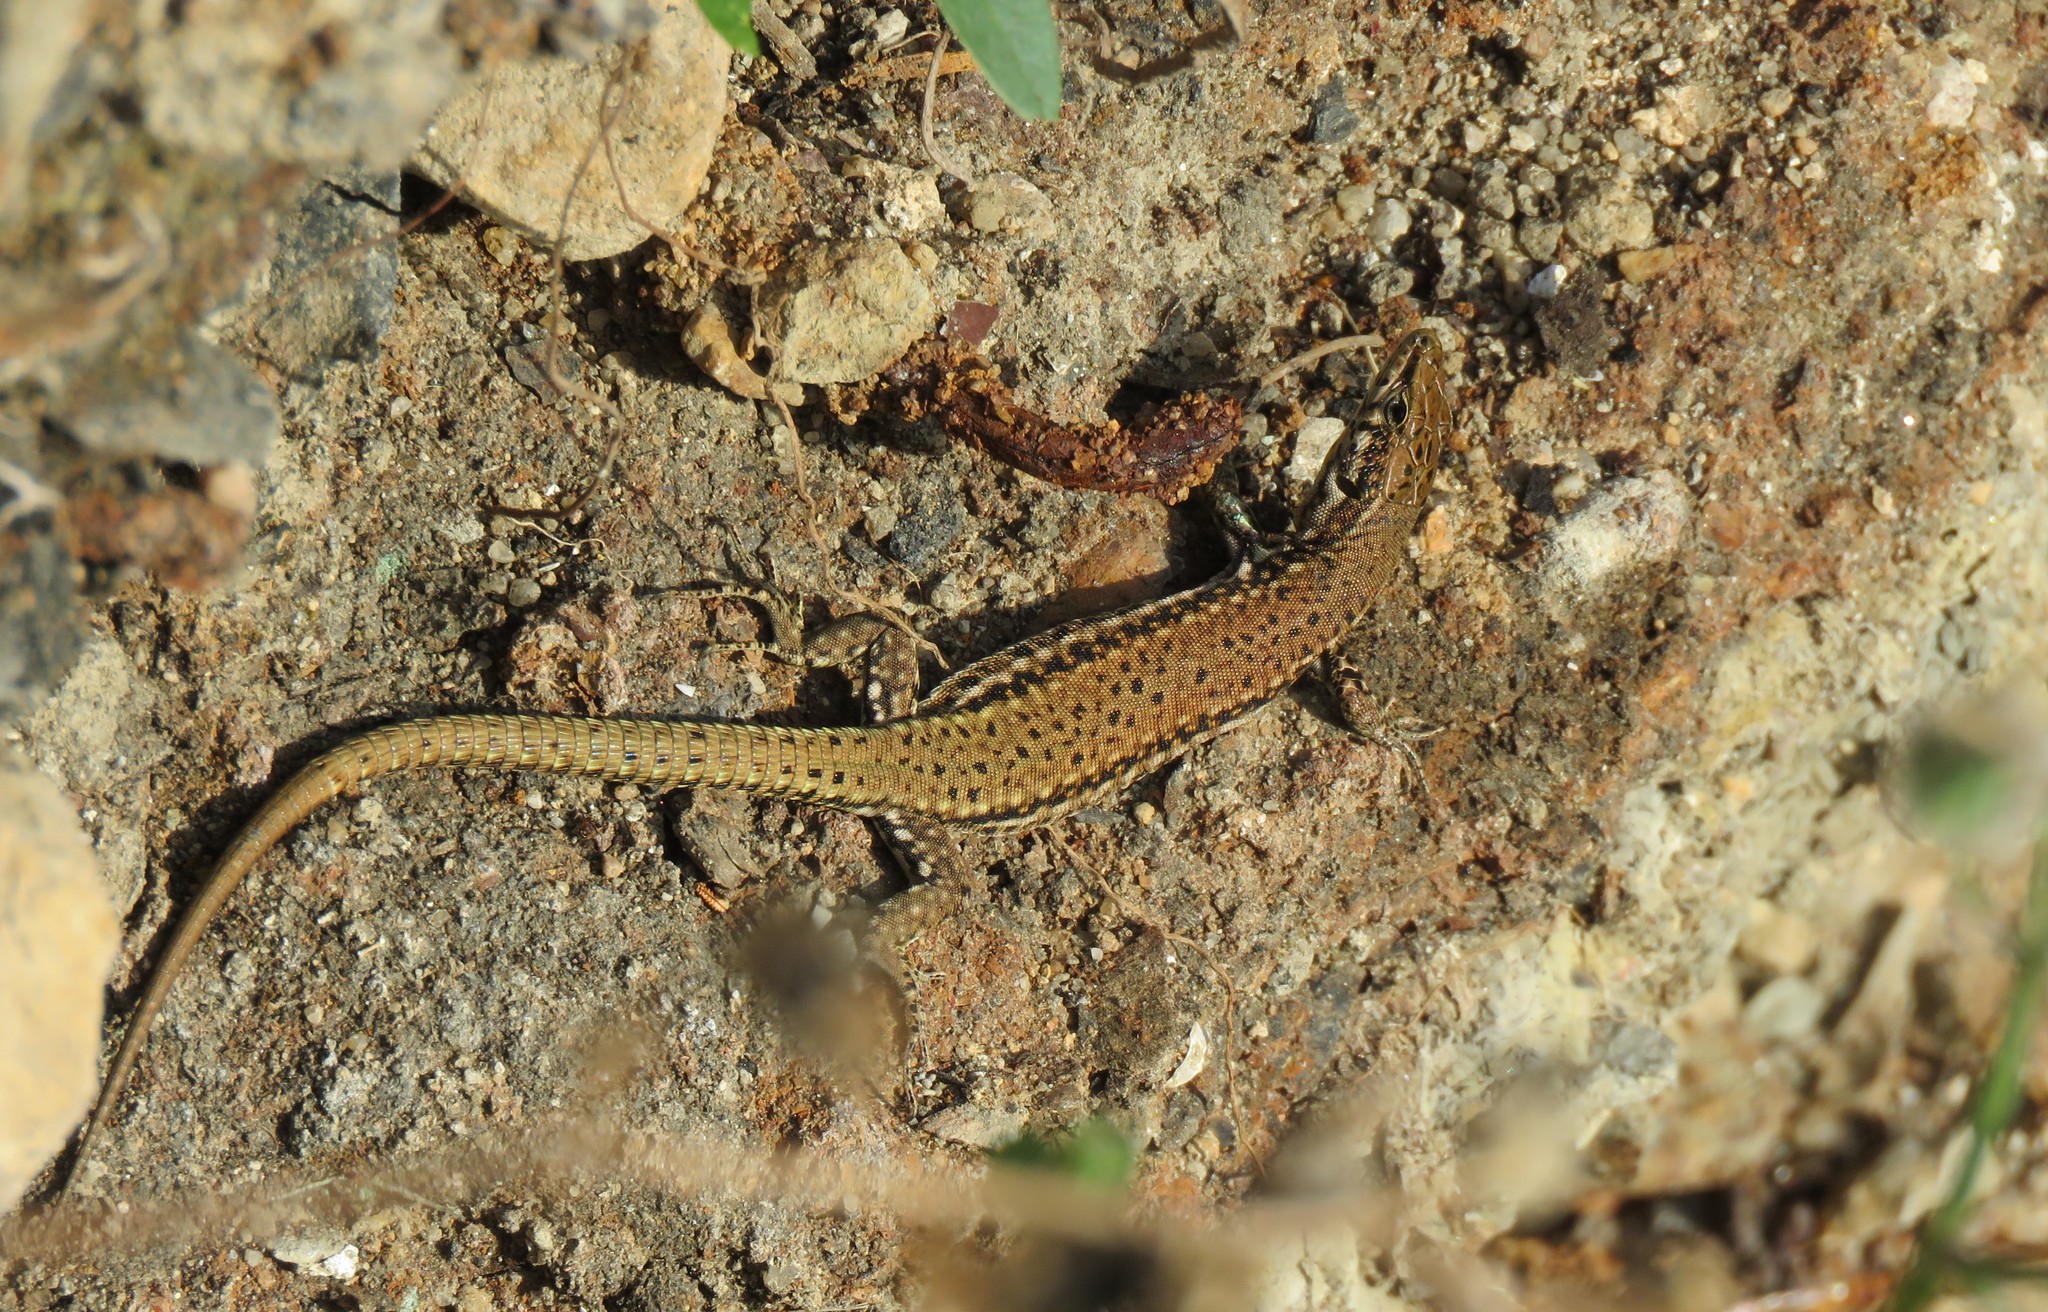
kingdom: Animalia
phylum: Chordata
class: Squamata
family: Lacertidae
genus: Podarcis
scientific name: Podarcis virescens
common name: Geniez’s wall lizard
